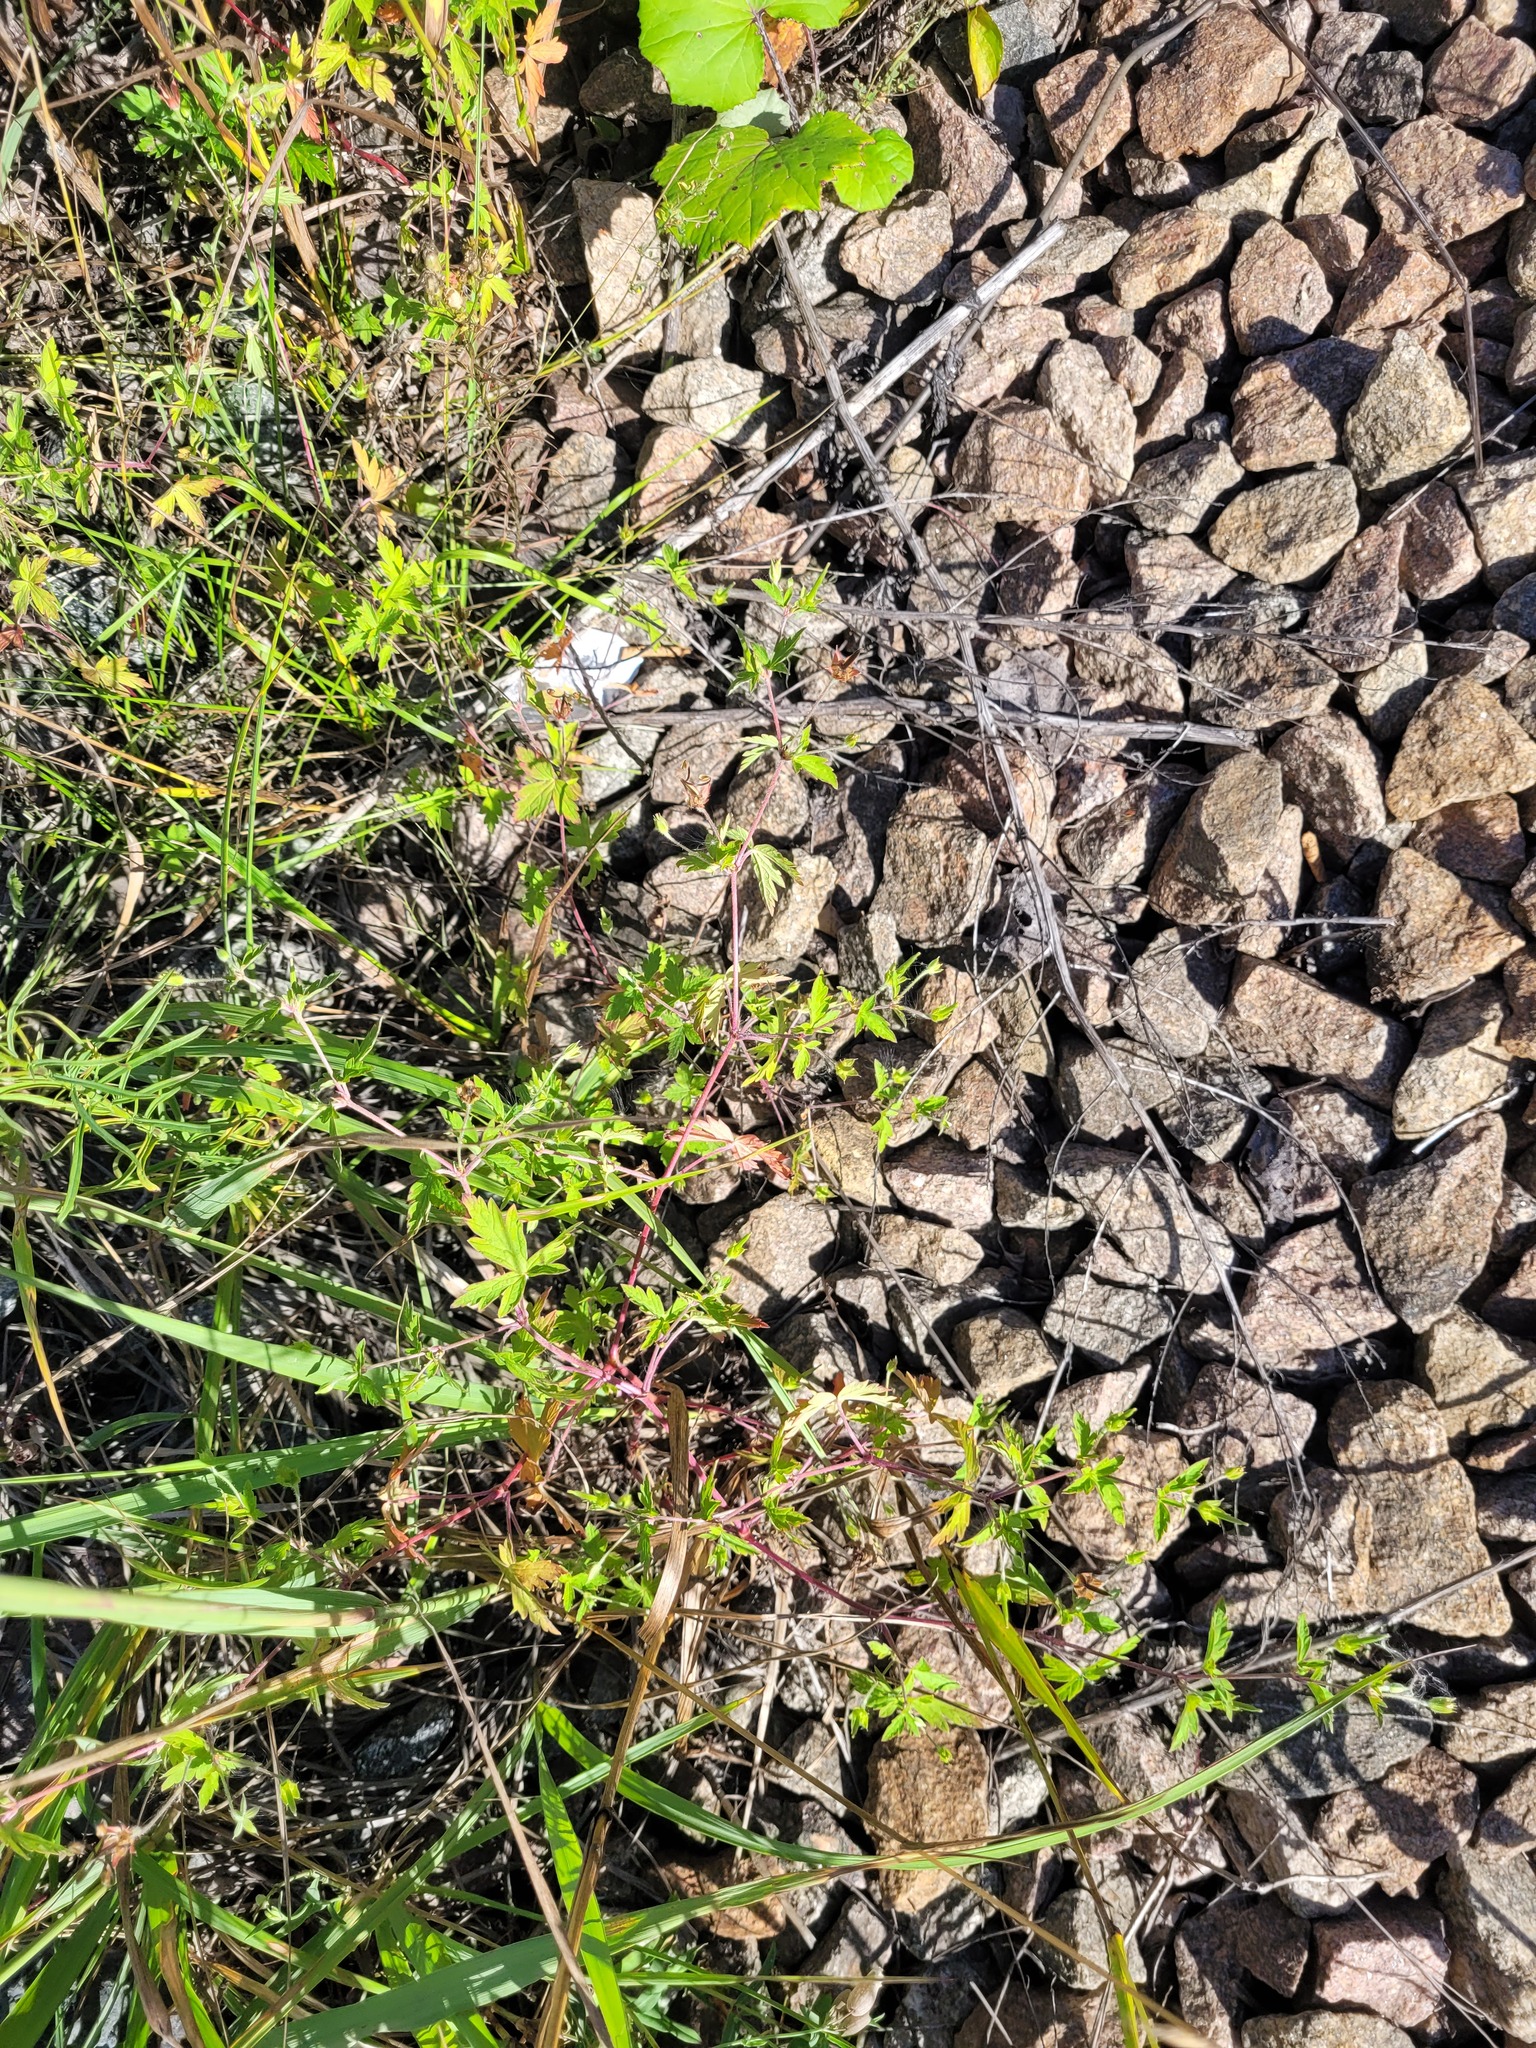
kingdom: Plantae
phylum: Tracheophyta
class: Magnoliopsida
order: Geraniales
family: Geraniaceae
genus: Geranium
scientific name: Geranium sibiricum
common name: Siberian crane's-bill
